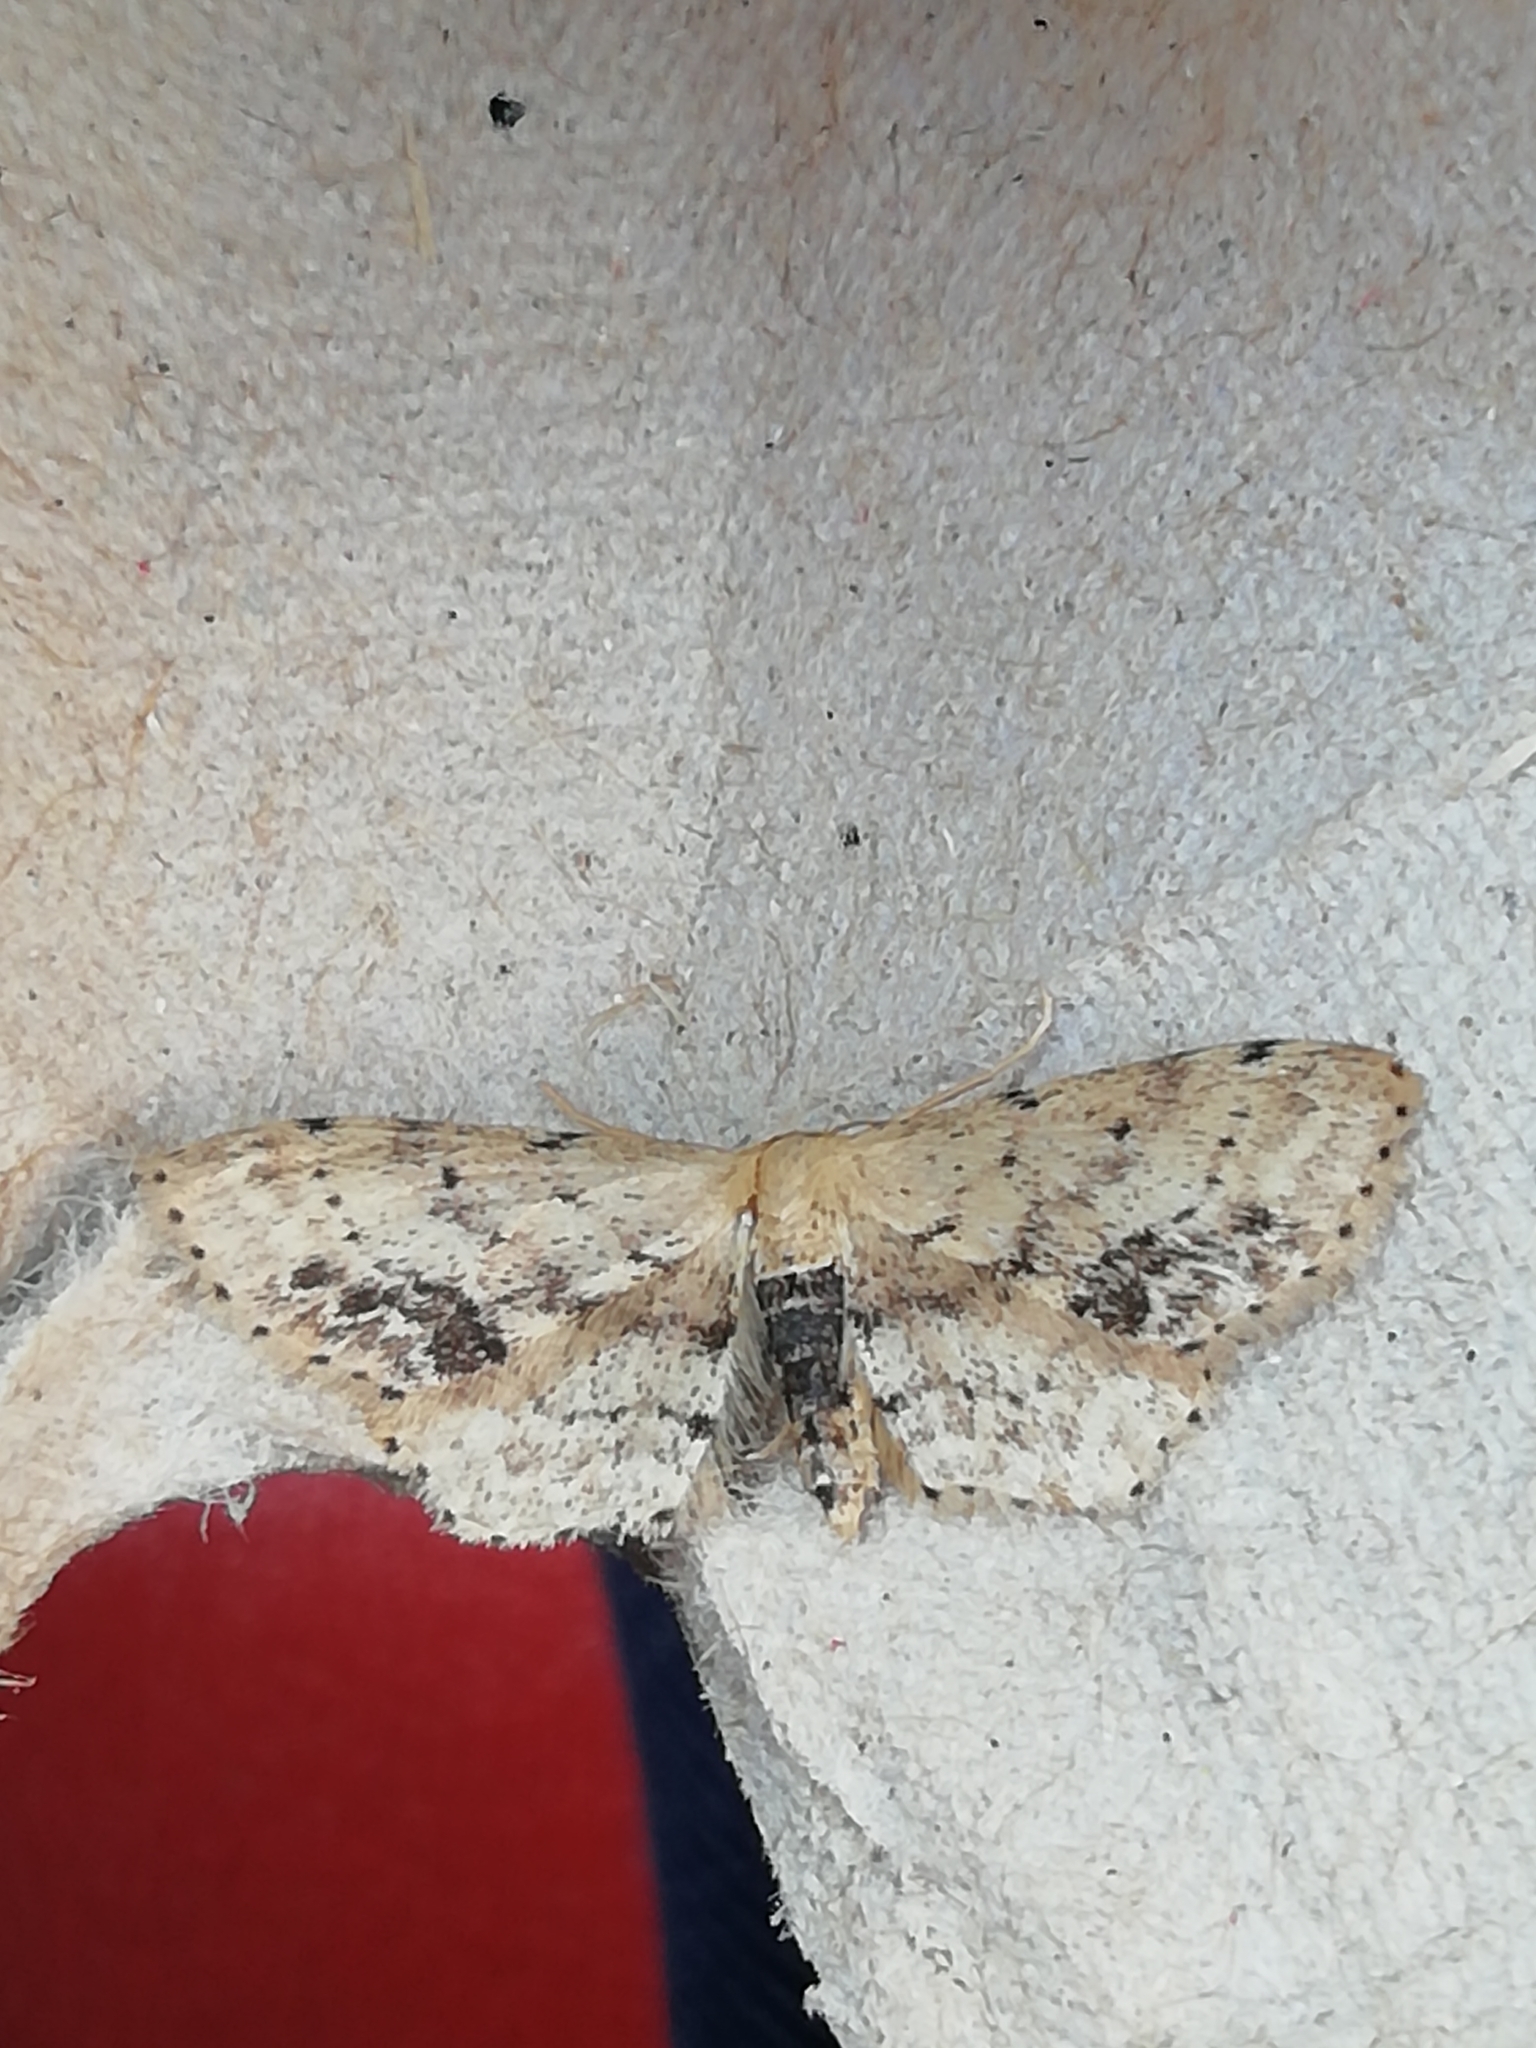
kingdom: Animalia
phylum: Arthropoda
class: Insecta
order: Lepidoptera
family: Geometridae
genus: Idaea
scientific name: Idaea dimidiata
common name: Single-dotted wave
